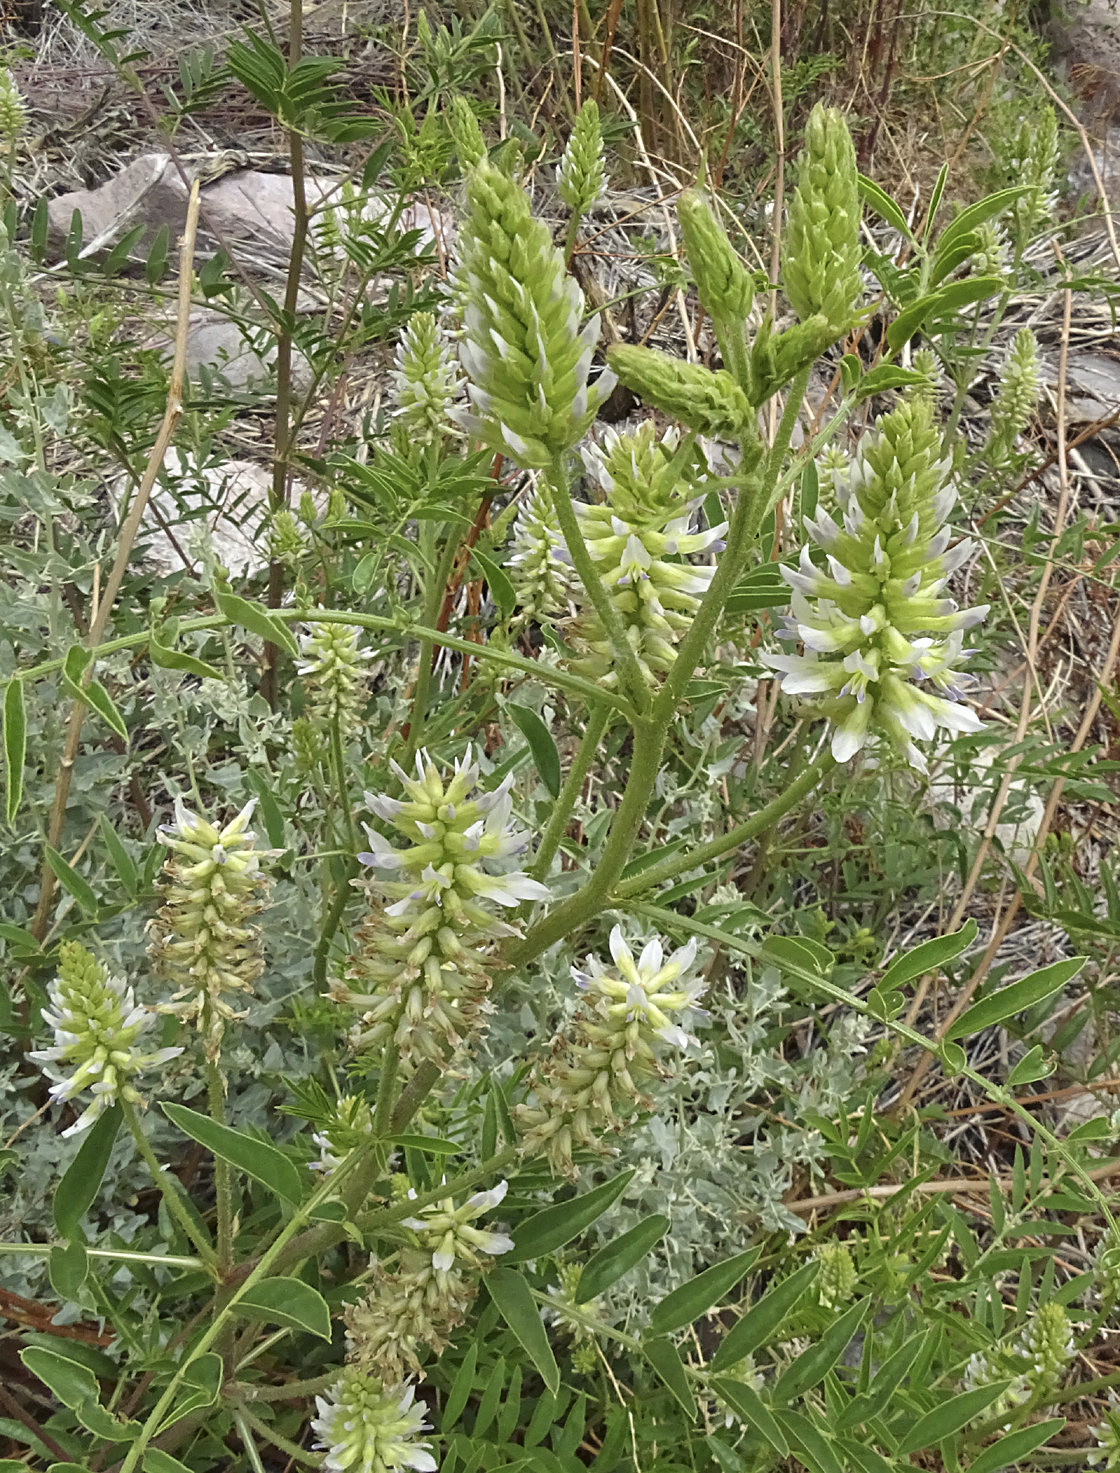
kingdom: Plantae
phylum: Tracheophyta
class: Magnoliopsida
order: Fabales
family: Fabaceae
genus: Glycyrrhiza
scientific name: Glycyrrhiza lepidota
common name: American liquorice
